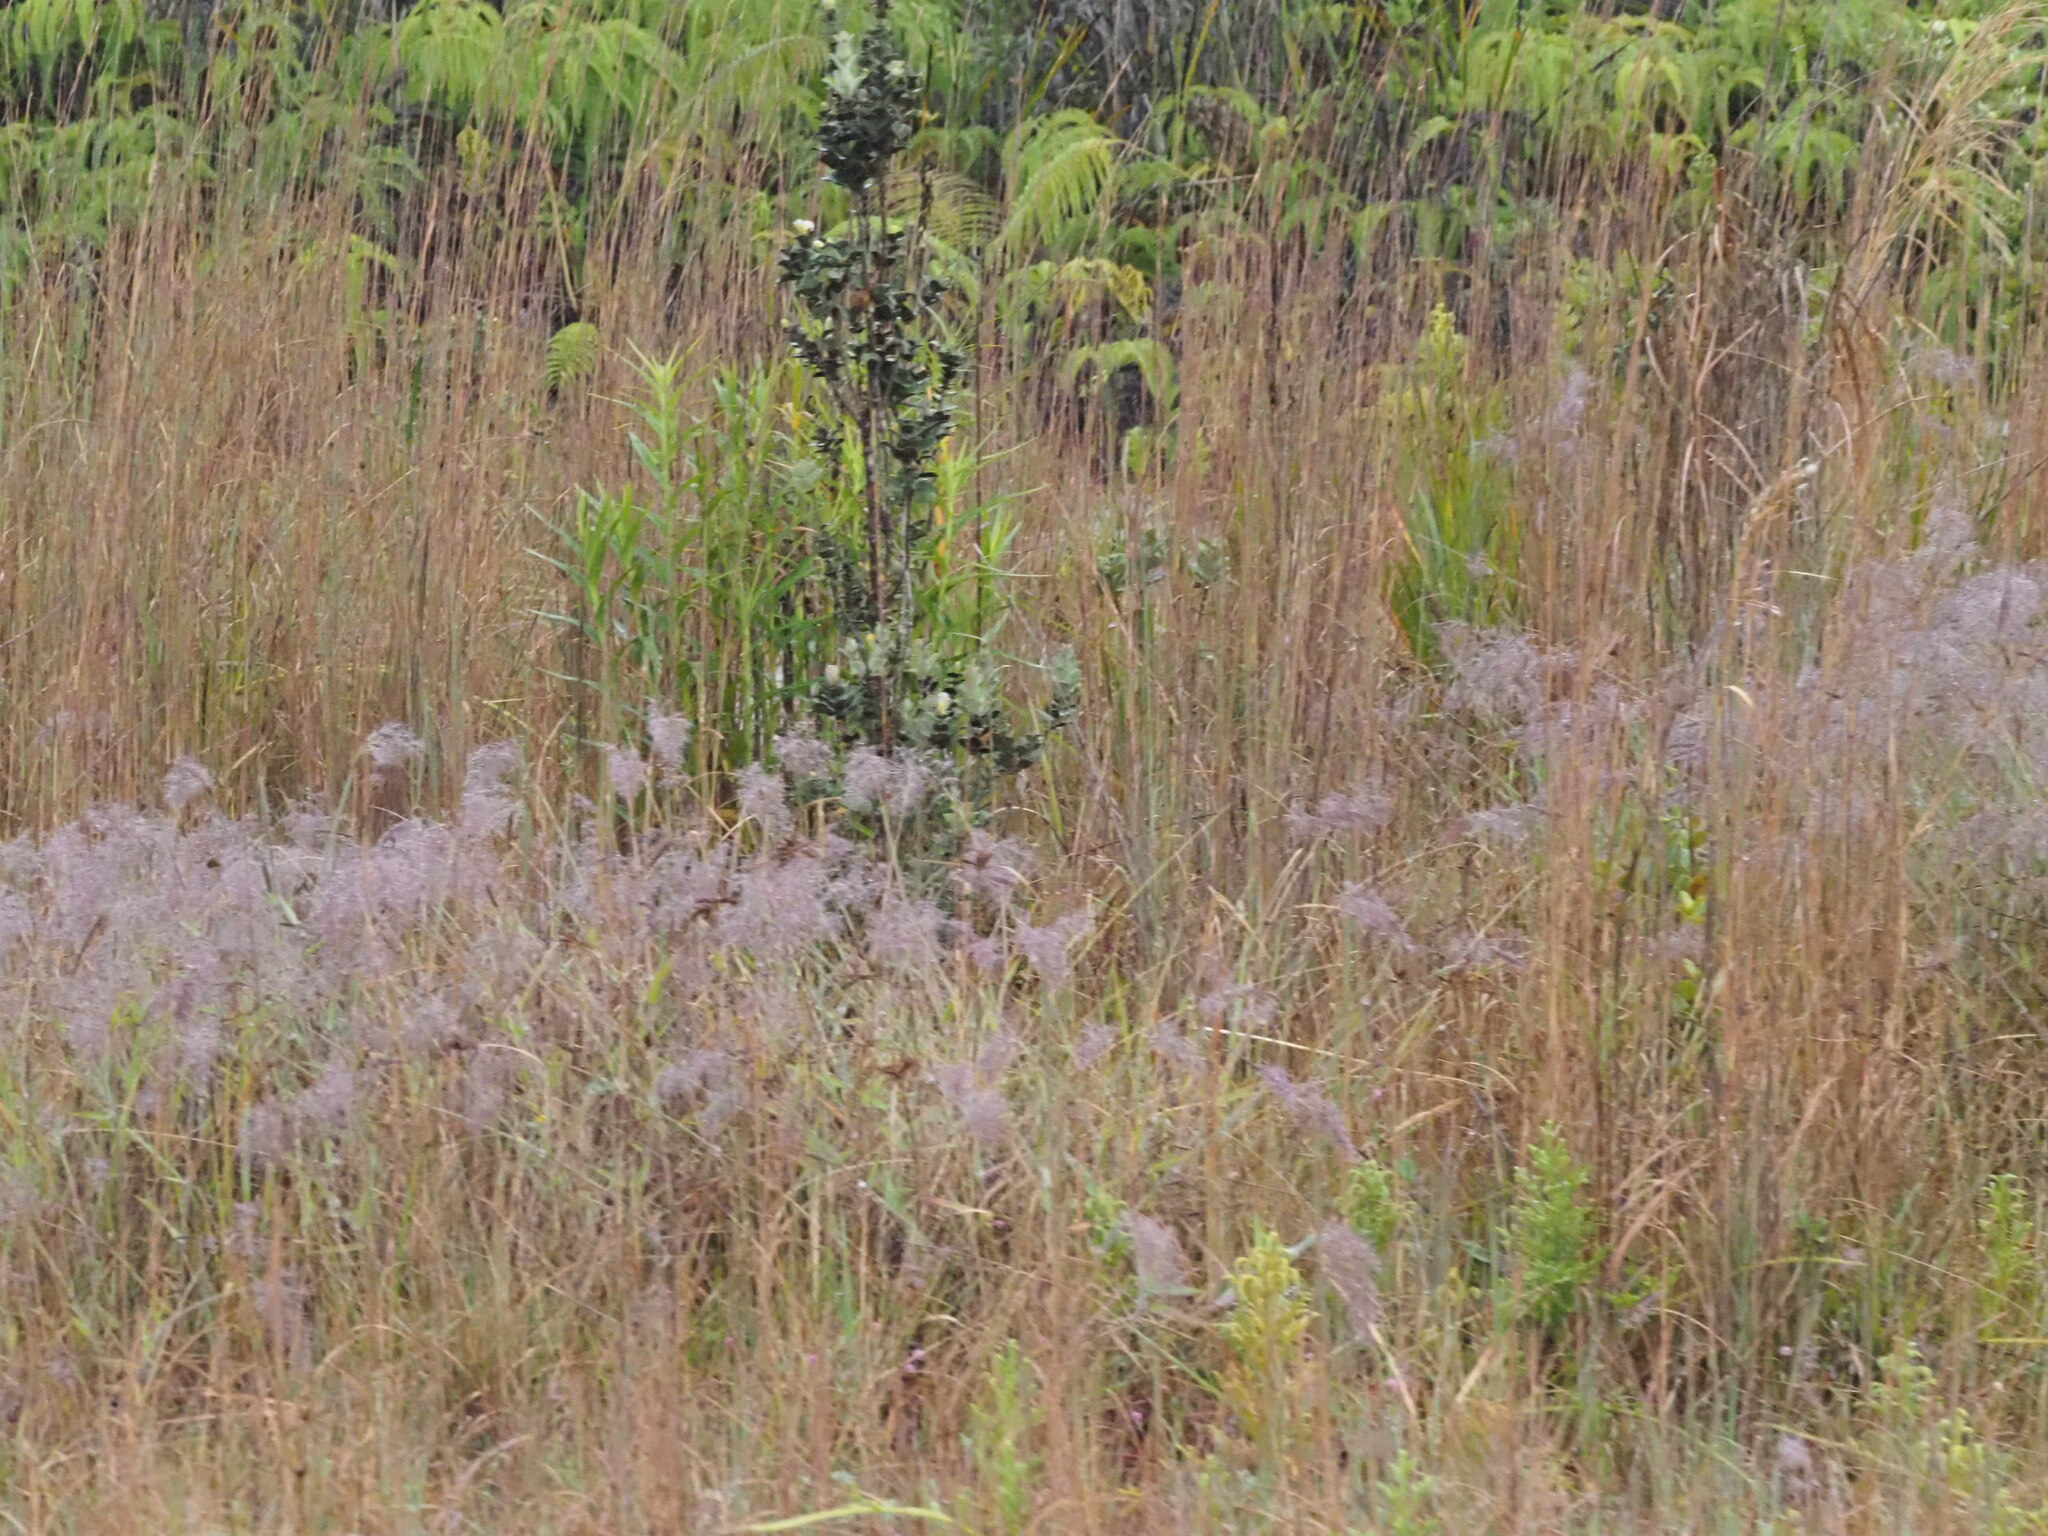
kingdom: Plantae
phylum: Tracheophyta
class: Liliopsida
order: Poales
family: Poaceae
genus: Melinis
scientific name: Melinis minutiflora
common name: Molassesgrass
